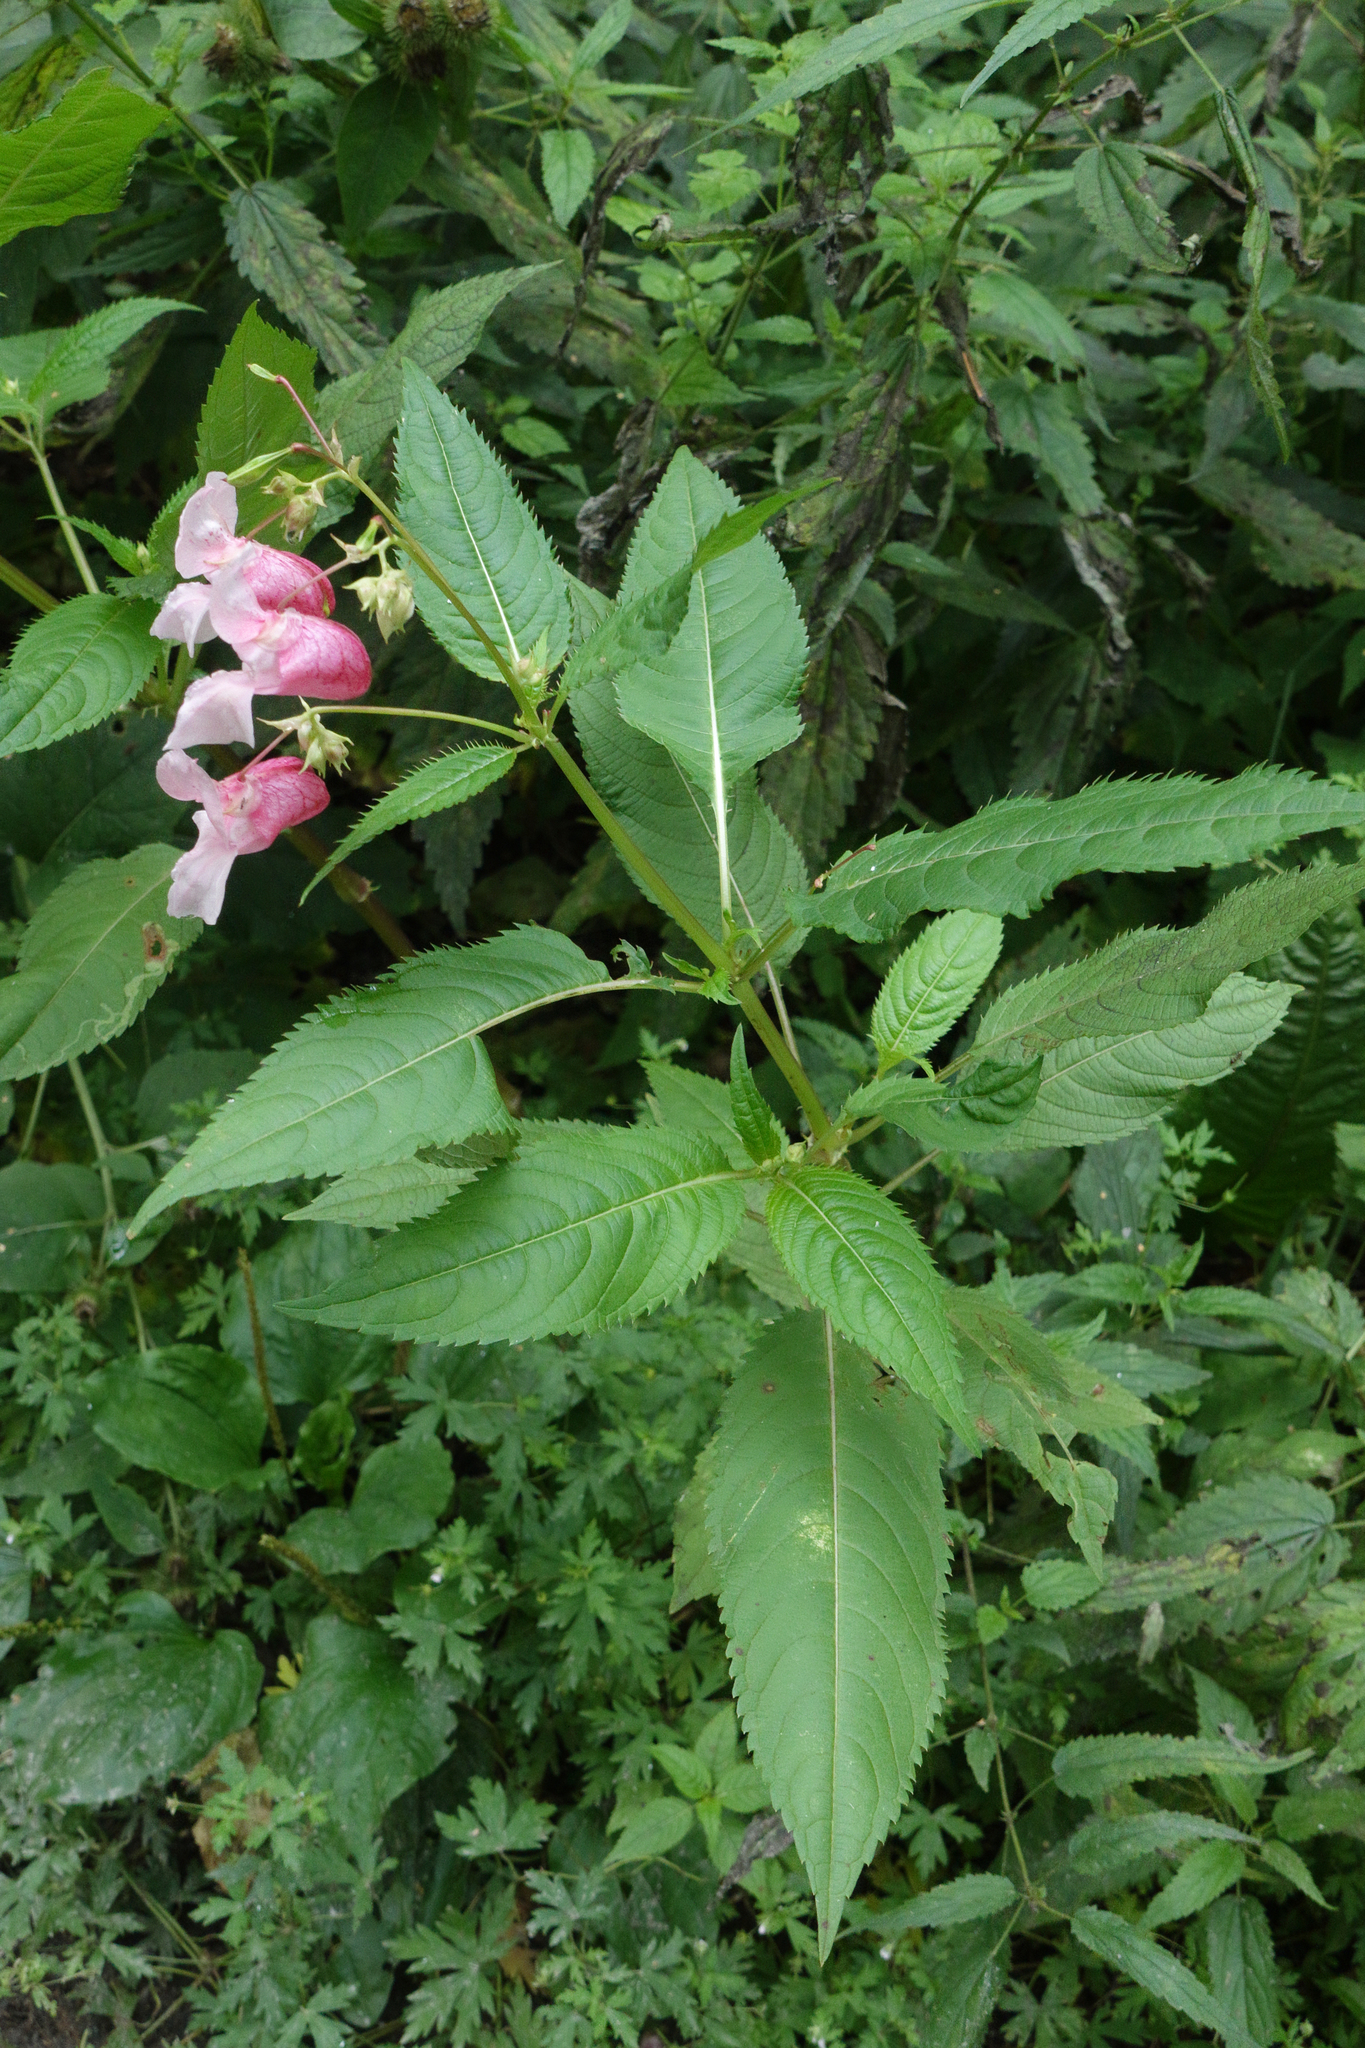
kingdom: Plantae
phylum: Tracheophyta
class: Magnoliopsida
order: Ericales
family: Balsaminaceae
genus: Impatiens
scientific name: Impatiens glandulifera
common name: Himalayan balsam
